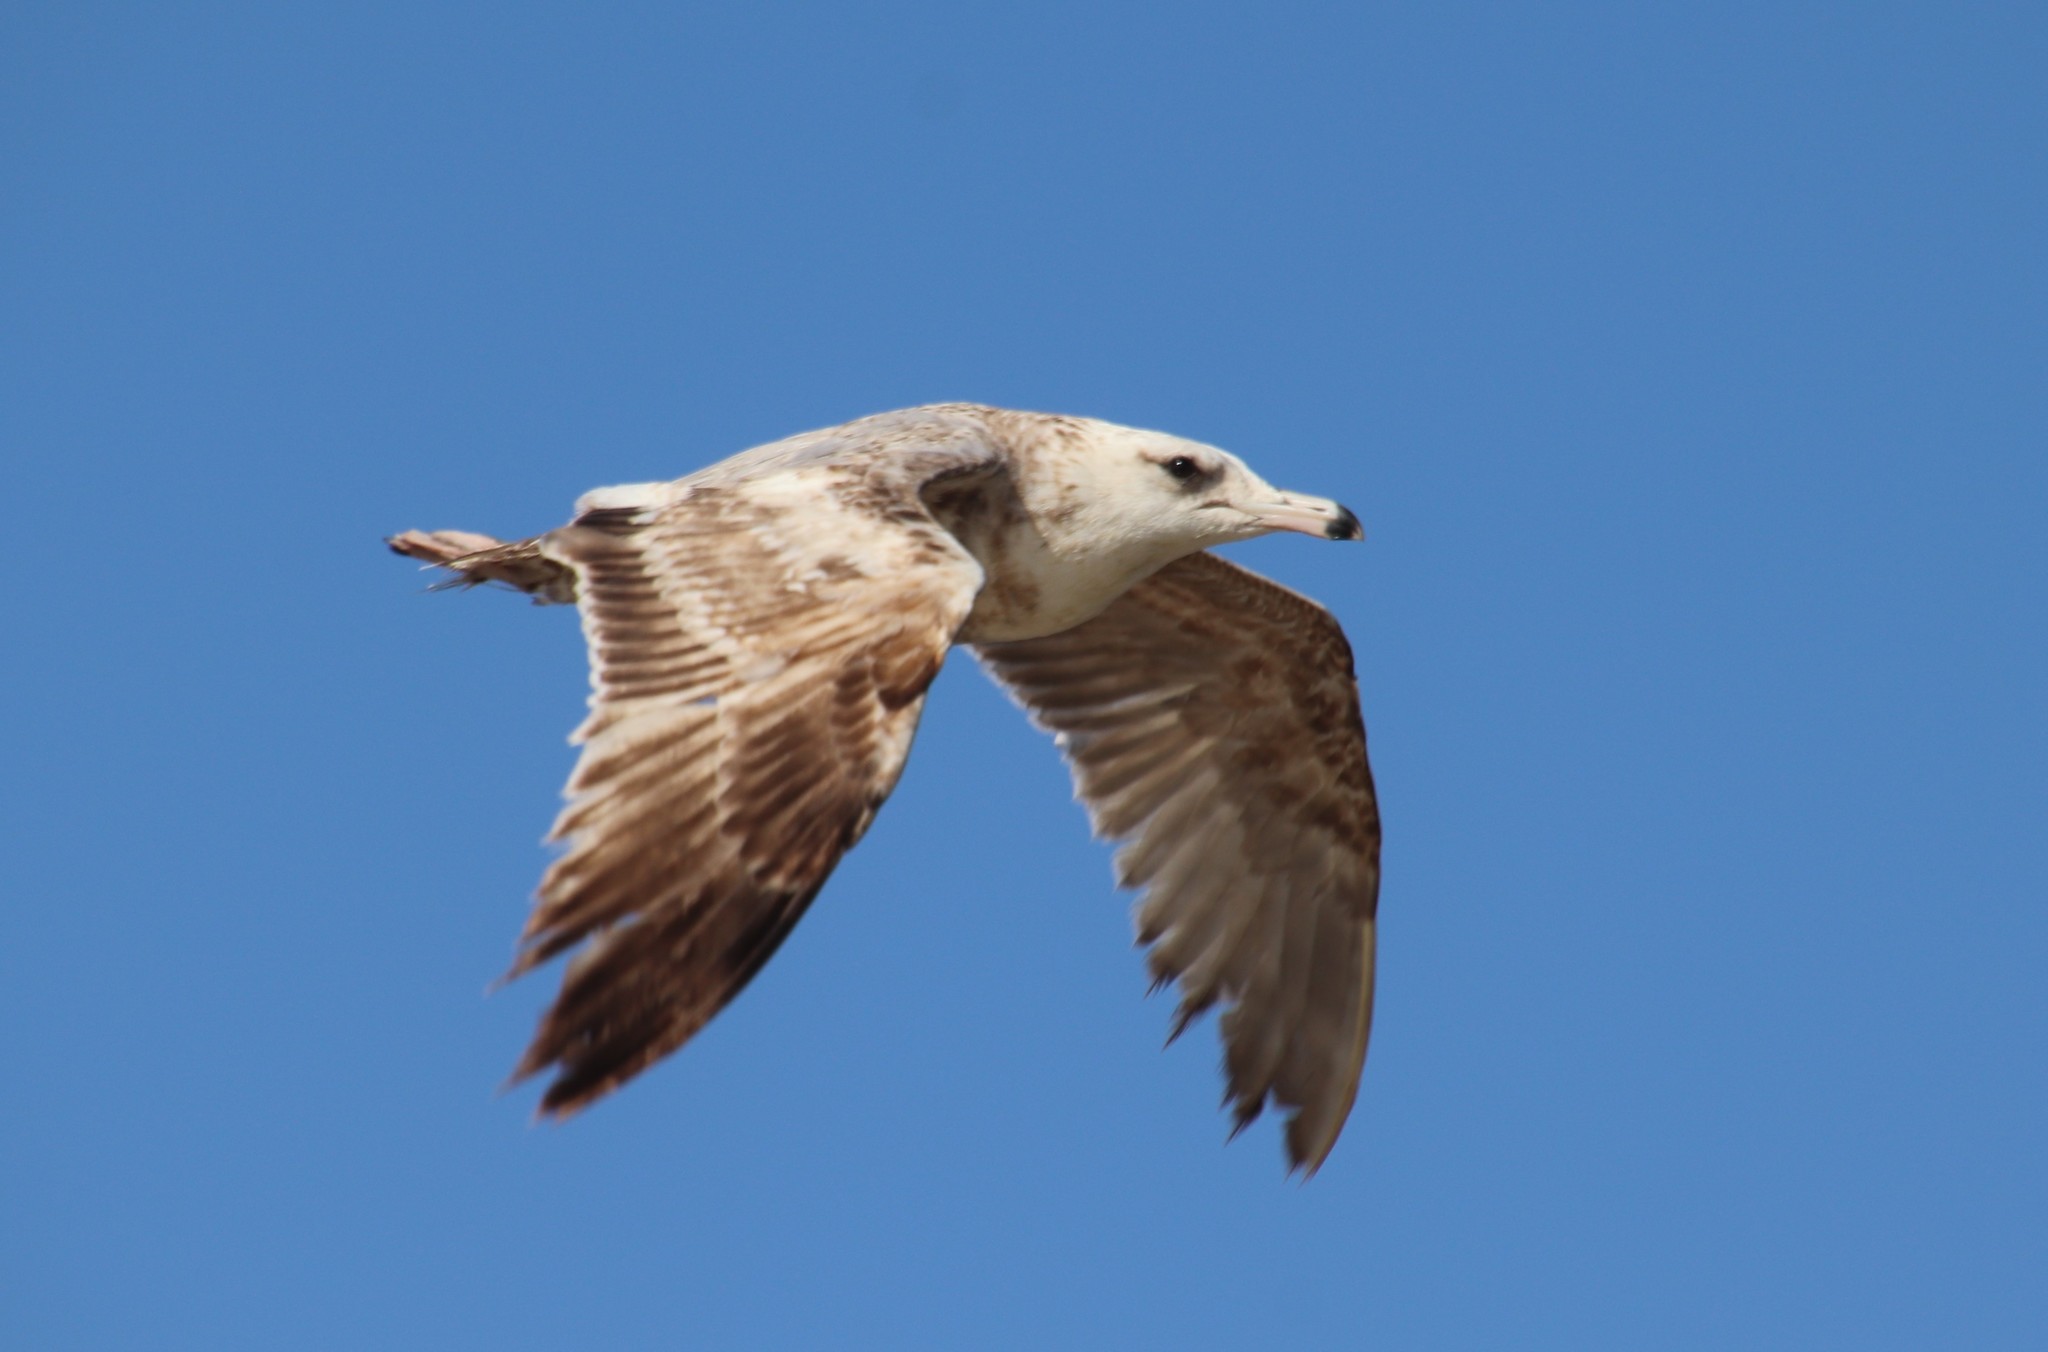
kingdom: Animalia
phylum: Chordata
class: Aves
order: Charadriiformes
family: Laridae
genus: Larus
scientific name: Larus californicus
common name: California gull
